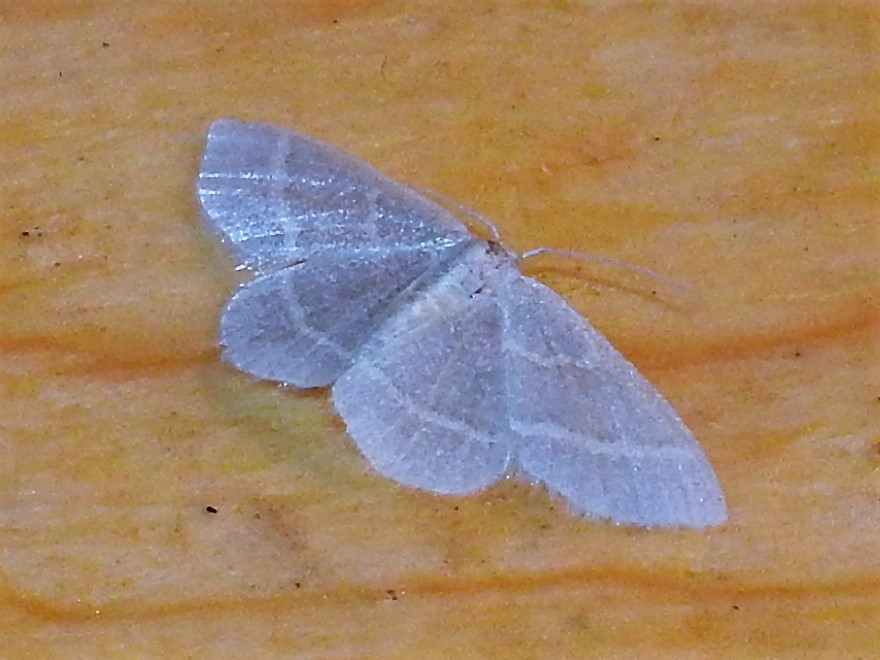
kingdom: Animalia
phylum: Arthropoda
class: Insecta
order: Lepidoptera
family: Geometridae
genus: Chlorochlamys
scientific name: Chlorochlamys chloroleucaria
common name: Blackberry looper
